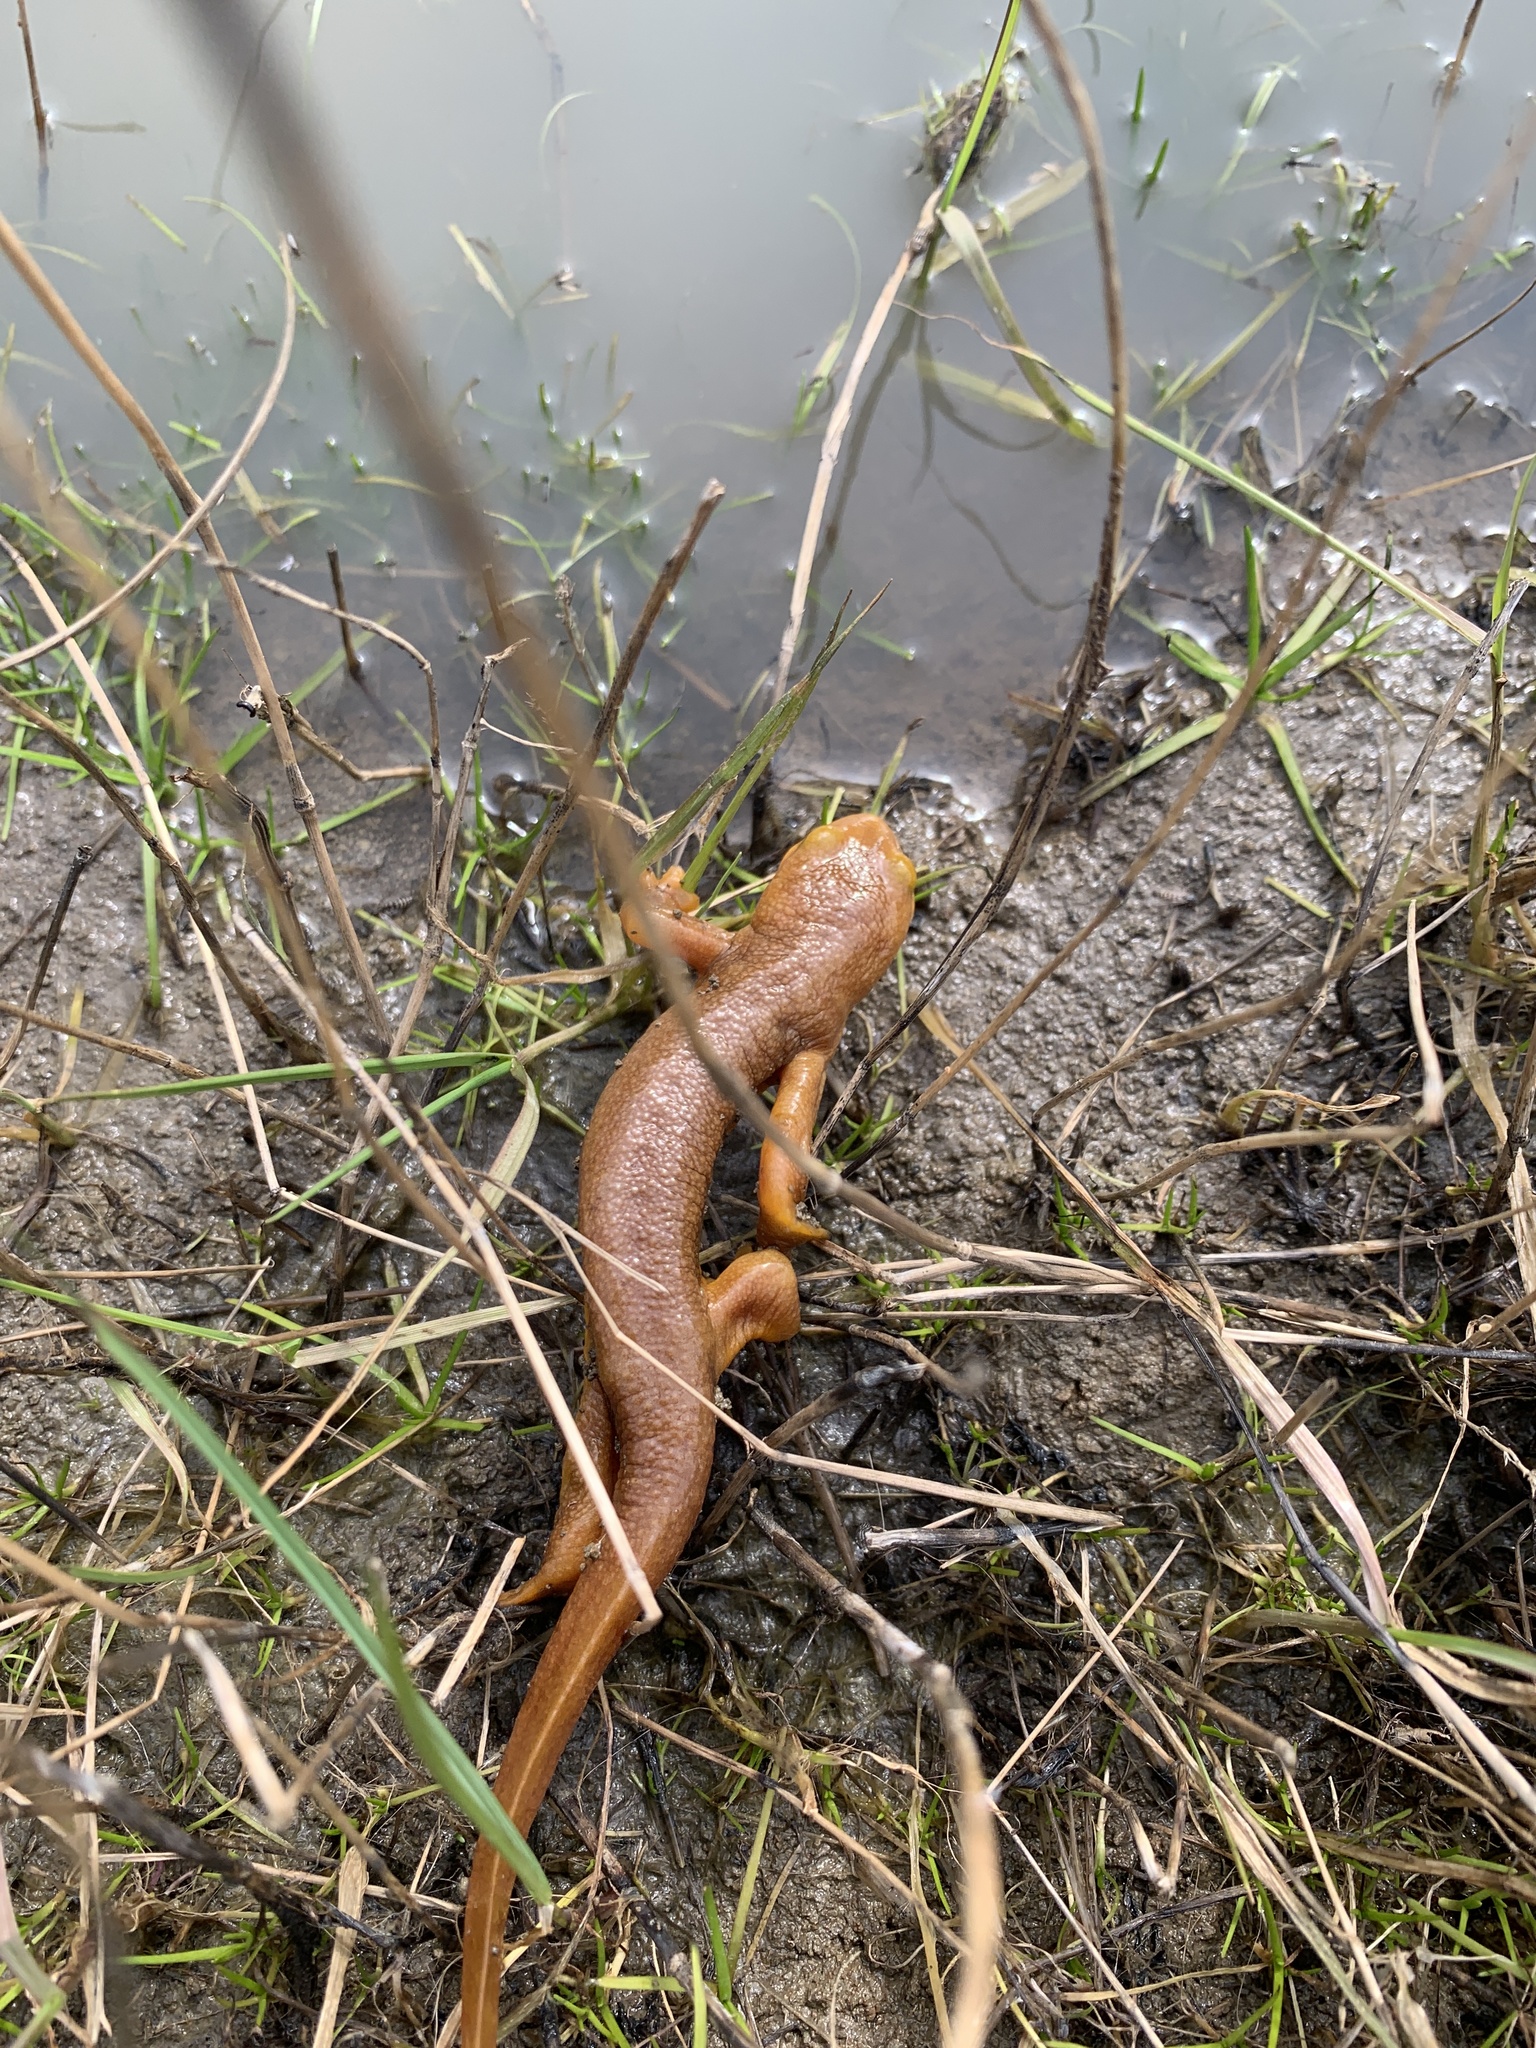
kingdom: Animalia
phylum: Chordata
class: Amphibia
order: Caudata
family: Salamandridae
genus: Taricha
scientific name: Taricha torosa
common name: California newt
